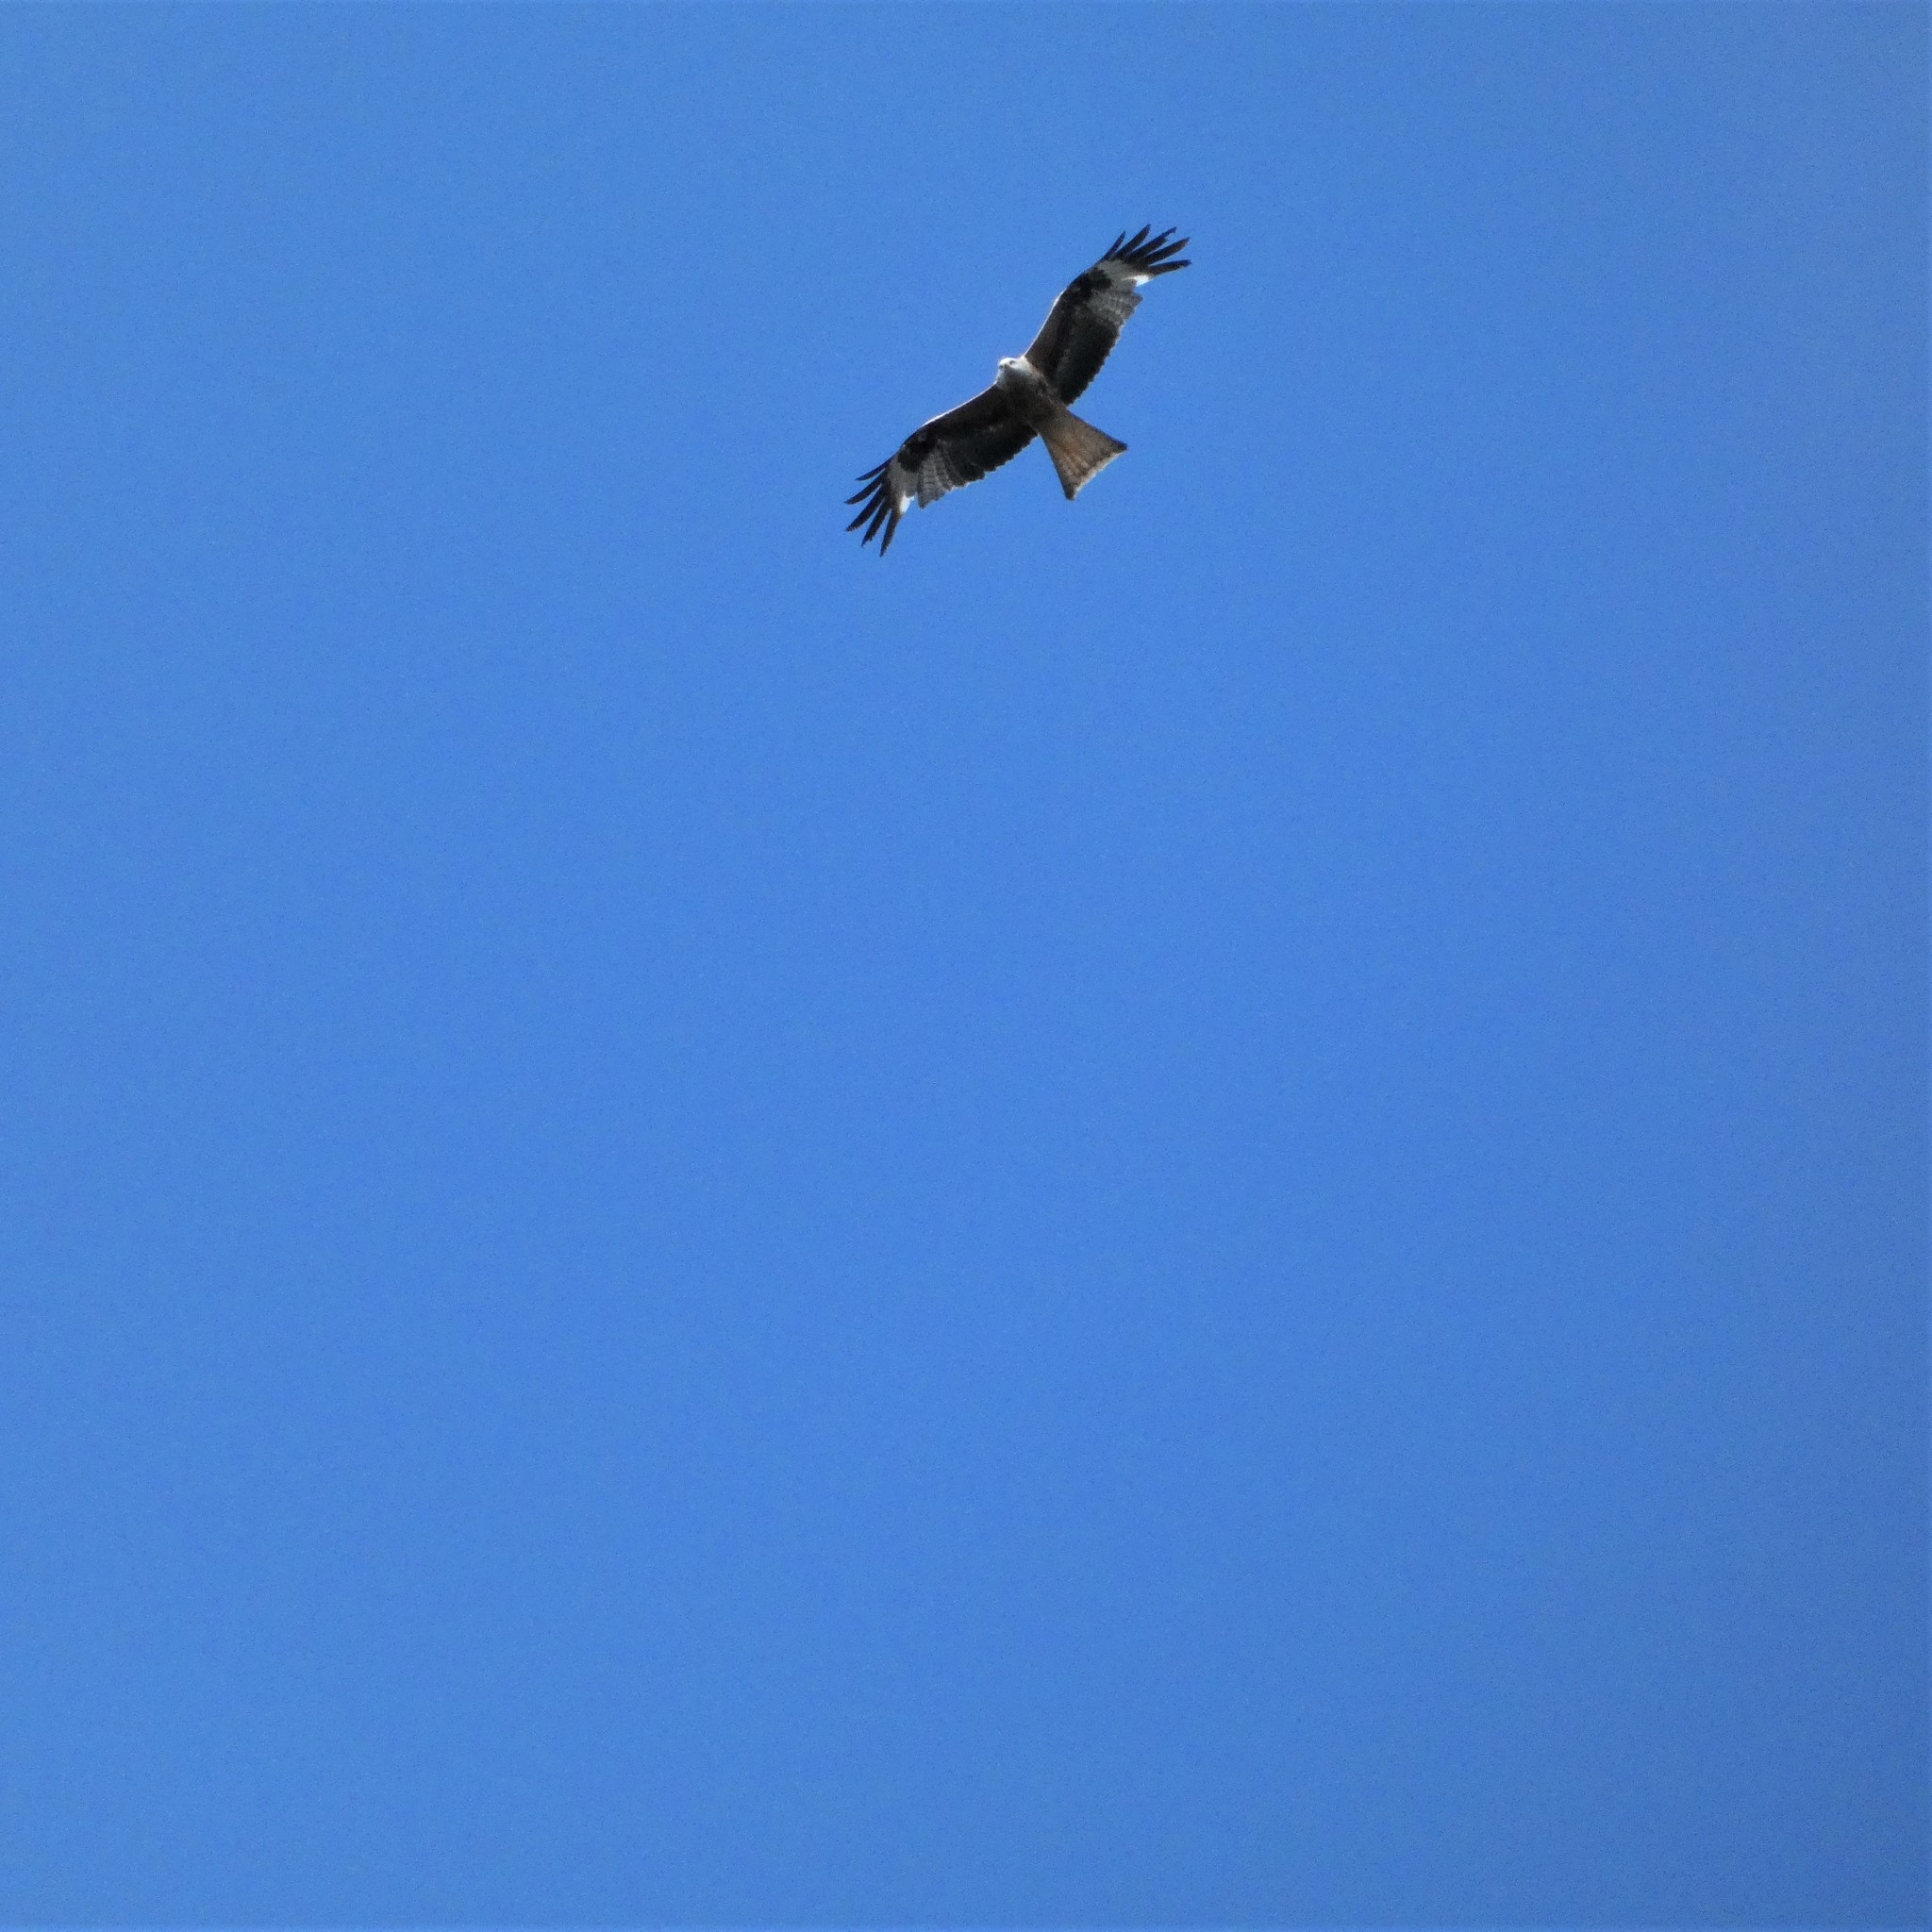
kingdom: Animalia
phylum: Chordata
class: Aves
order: Accipitriformes
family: Accipitridae
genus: Milvus
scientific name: Milvus milvus
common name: Red kite
